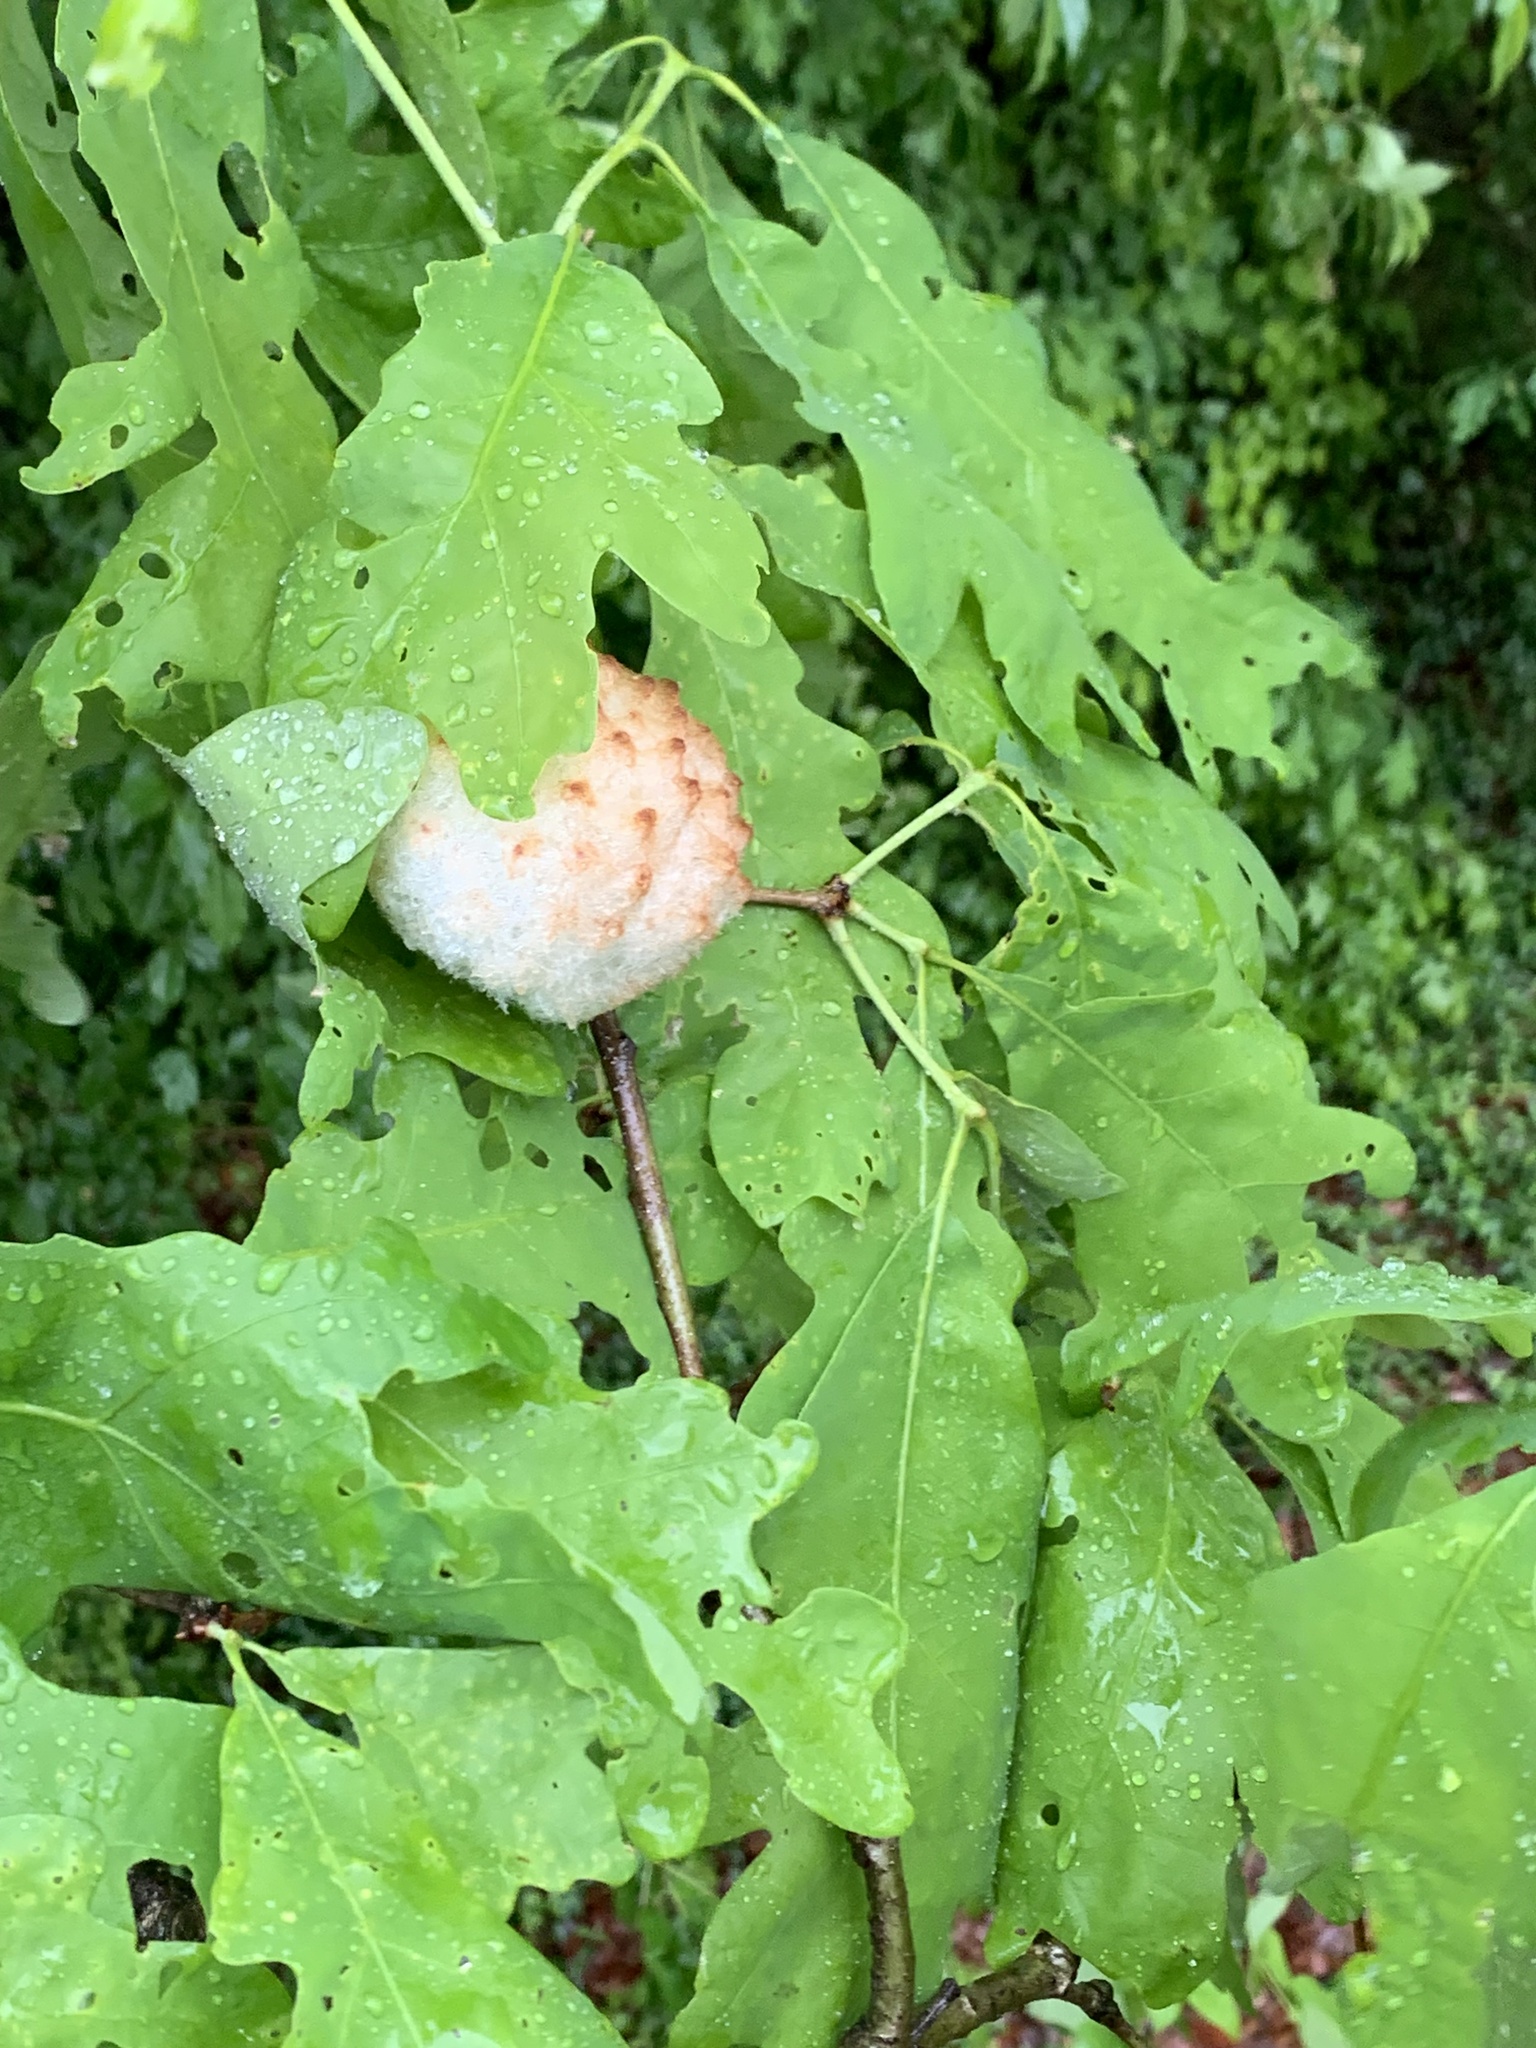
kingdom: Animalia
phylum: Arthropoda
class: Insecta
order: Hymenoptera
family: Cynipidae
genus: Callirhytis
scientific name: Callirhytis
